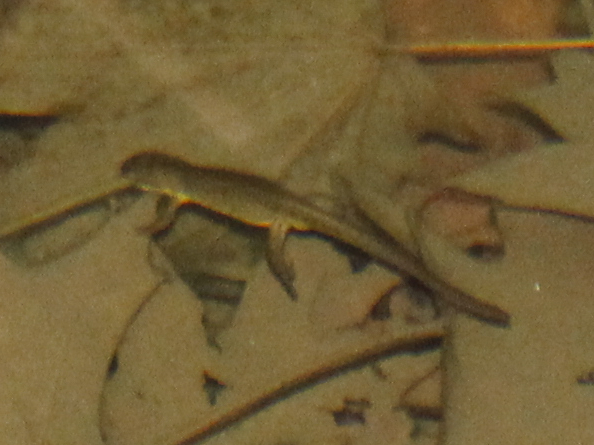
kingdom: Animalia
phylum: Chordata
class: Amphibia
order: Caudata
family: Salamandridae
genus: Notophthalmus
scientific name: Notophthalmus viridescens
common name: Eastern newt
